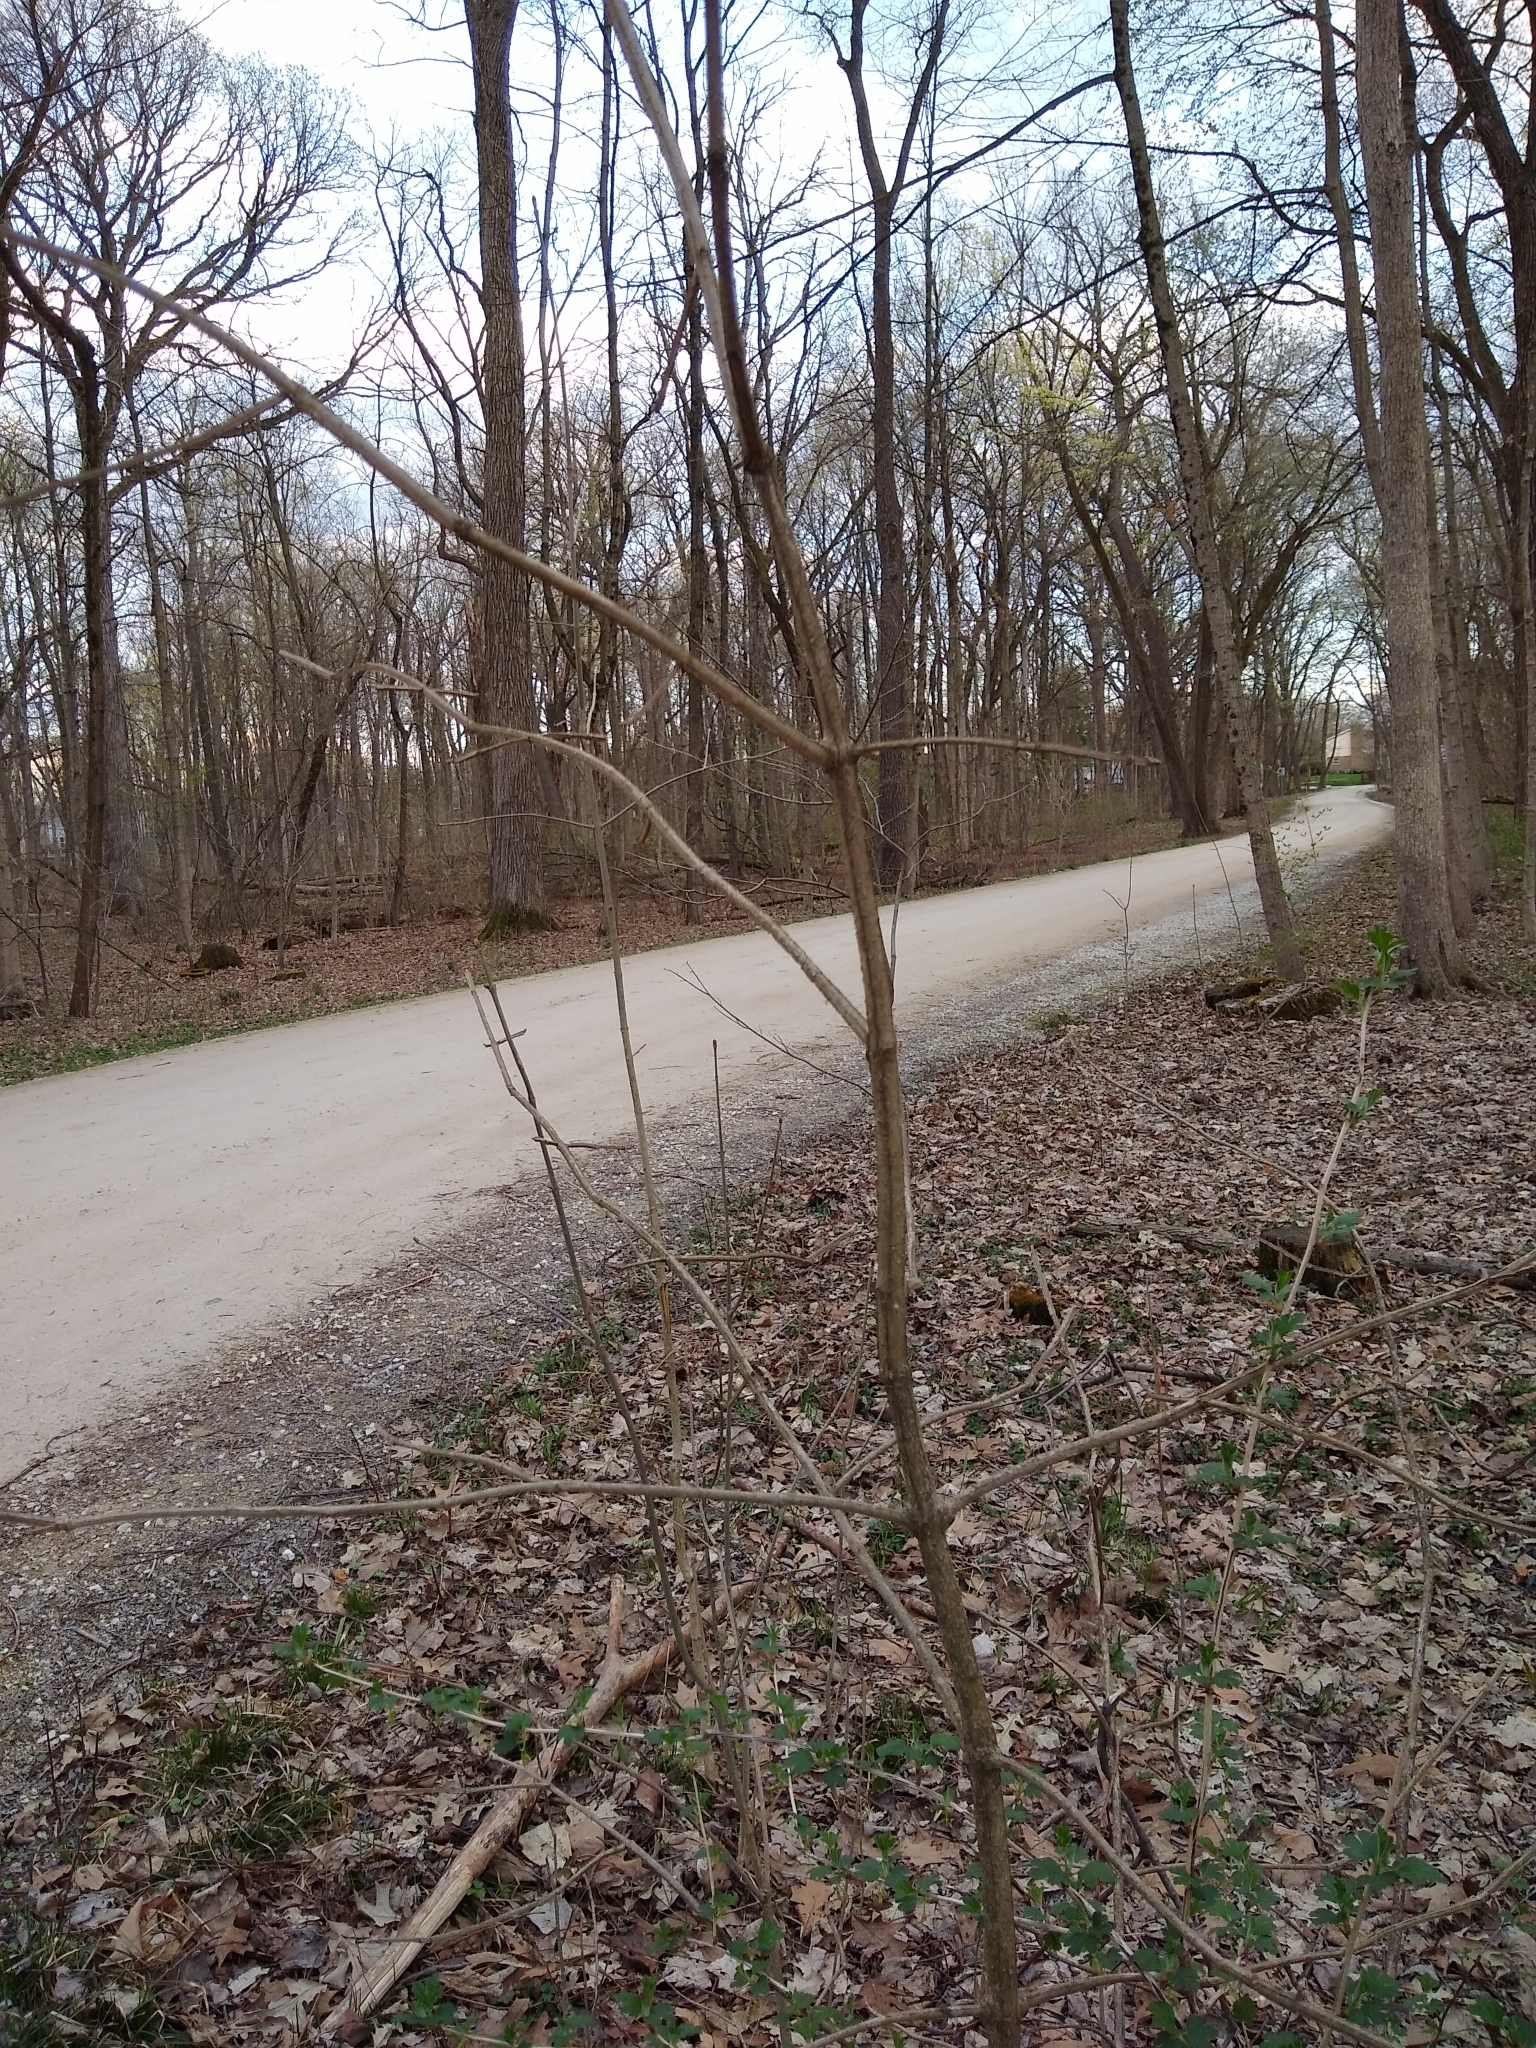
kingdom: Plantae
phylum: Tracheophyta
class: Magnoliopsida
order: Lamiales
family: Oleaceae
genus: Fraxinus
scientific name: Fraxinus quadrangulata
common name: Blue ash
